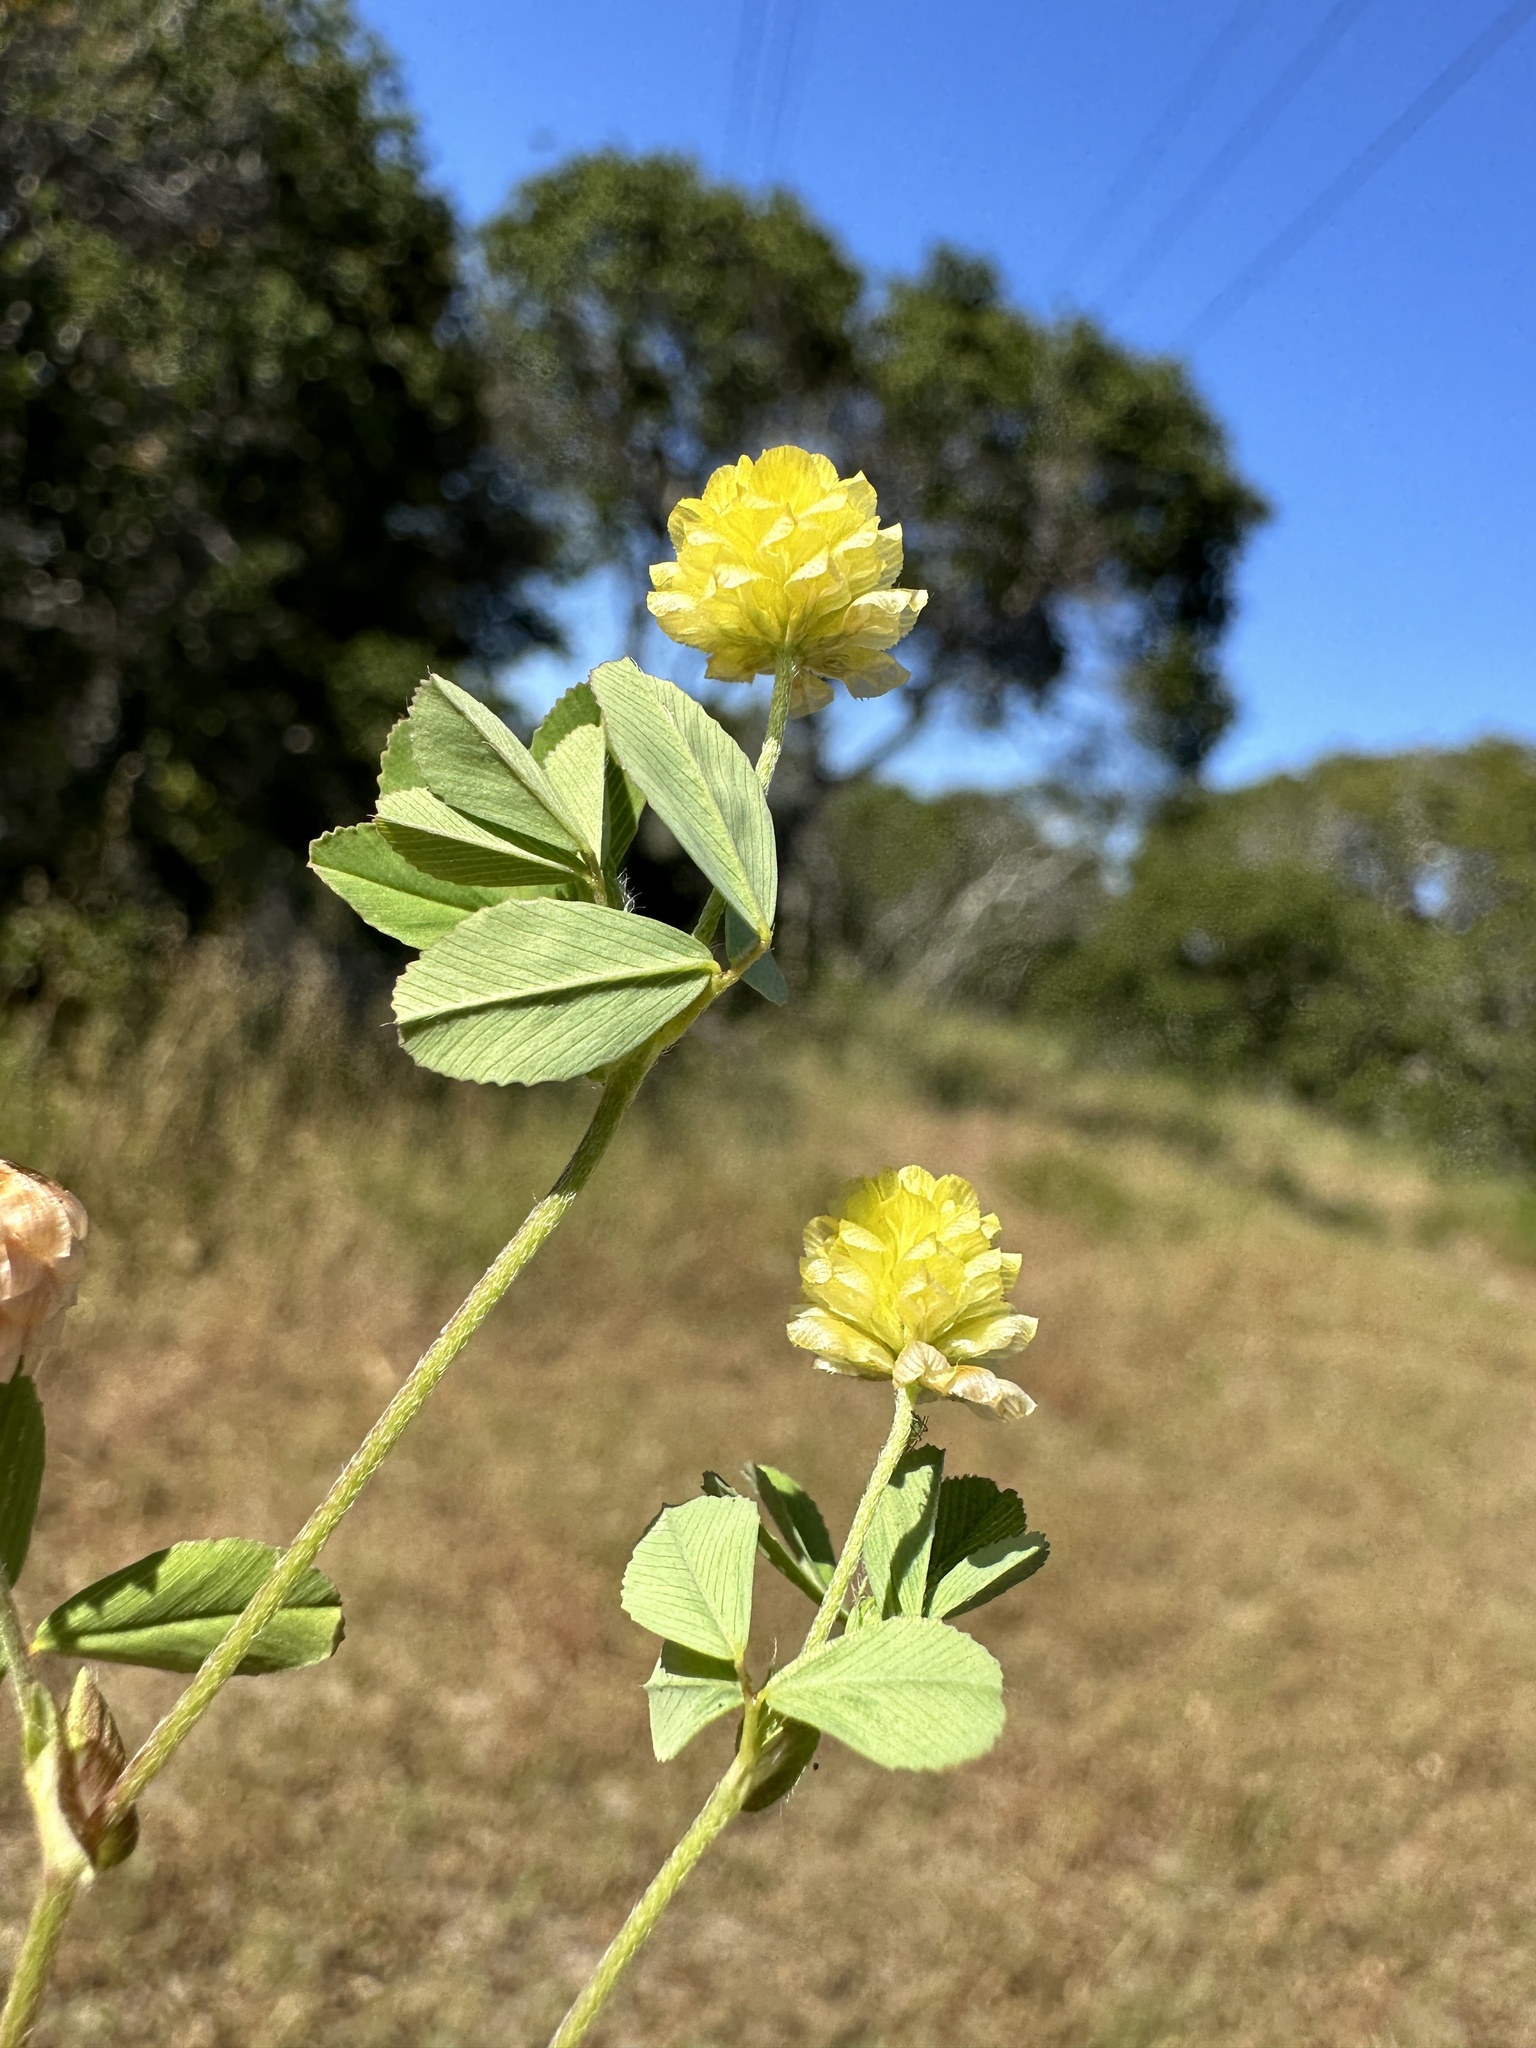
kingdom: Plantae
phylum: Tracheophyta
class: Magnoliopsida
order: Fabales
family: Fabaceae
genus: Trifolium
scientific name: Trifolium campestre
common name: Field clover
